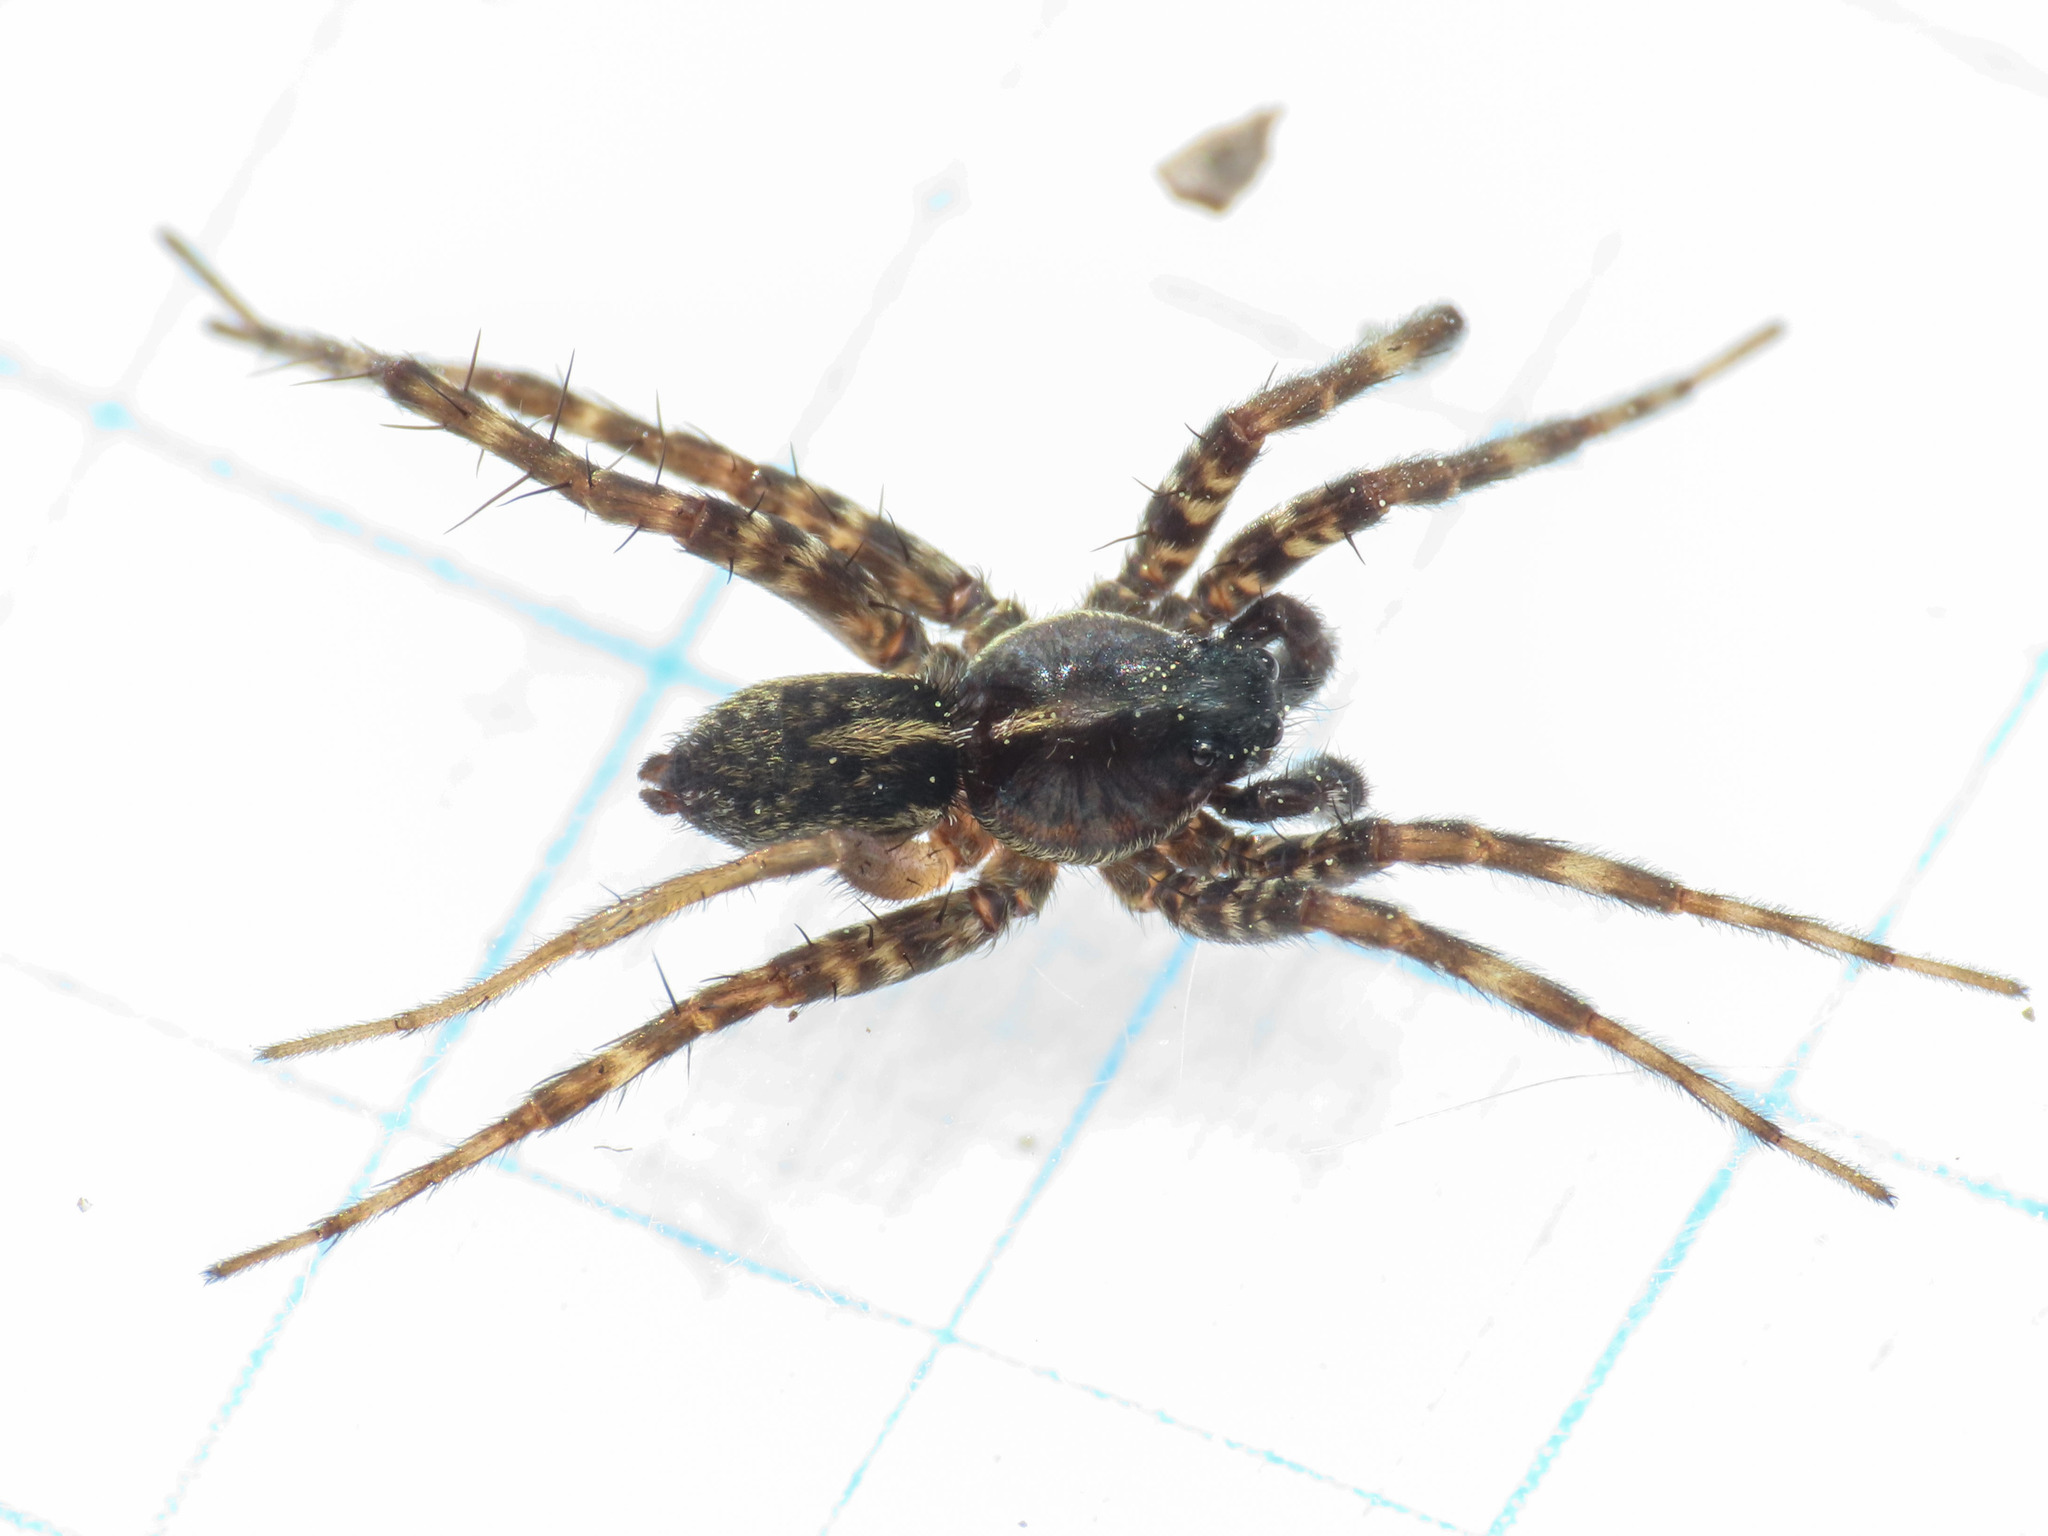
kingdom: Animalia
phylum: Arthropoda
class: Arachnida
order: Araneae
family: Lycosidae
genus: Pardosa
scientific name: Pardosa prativaga
